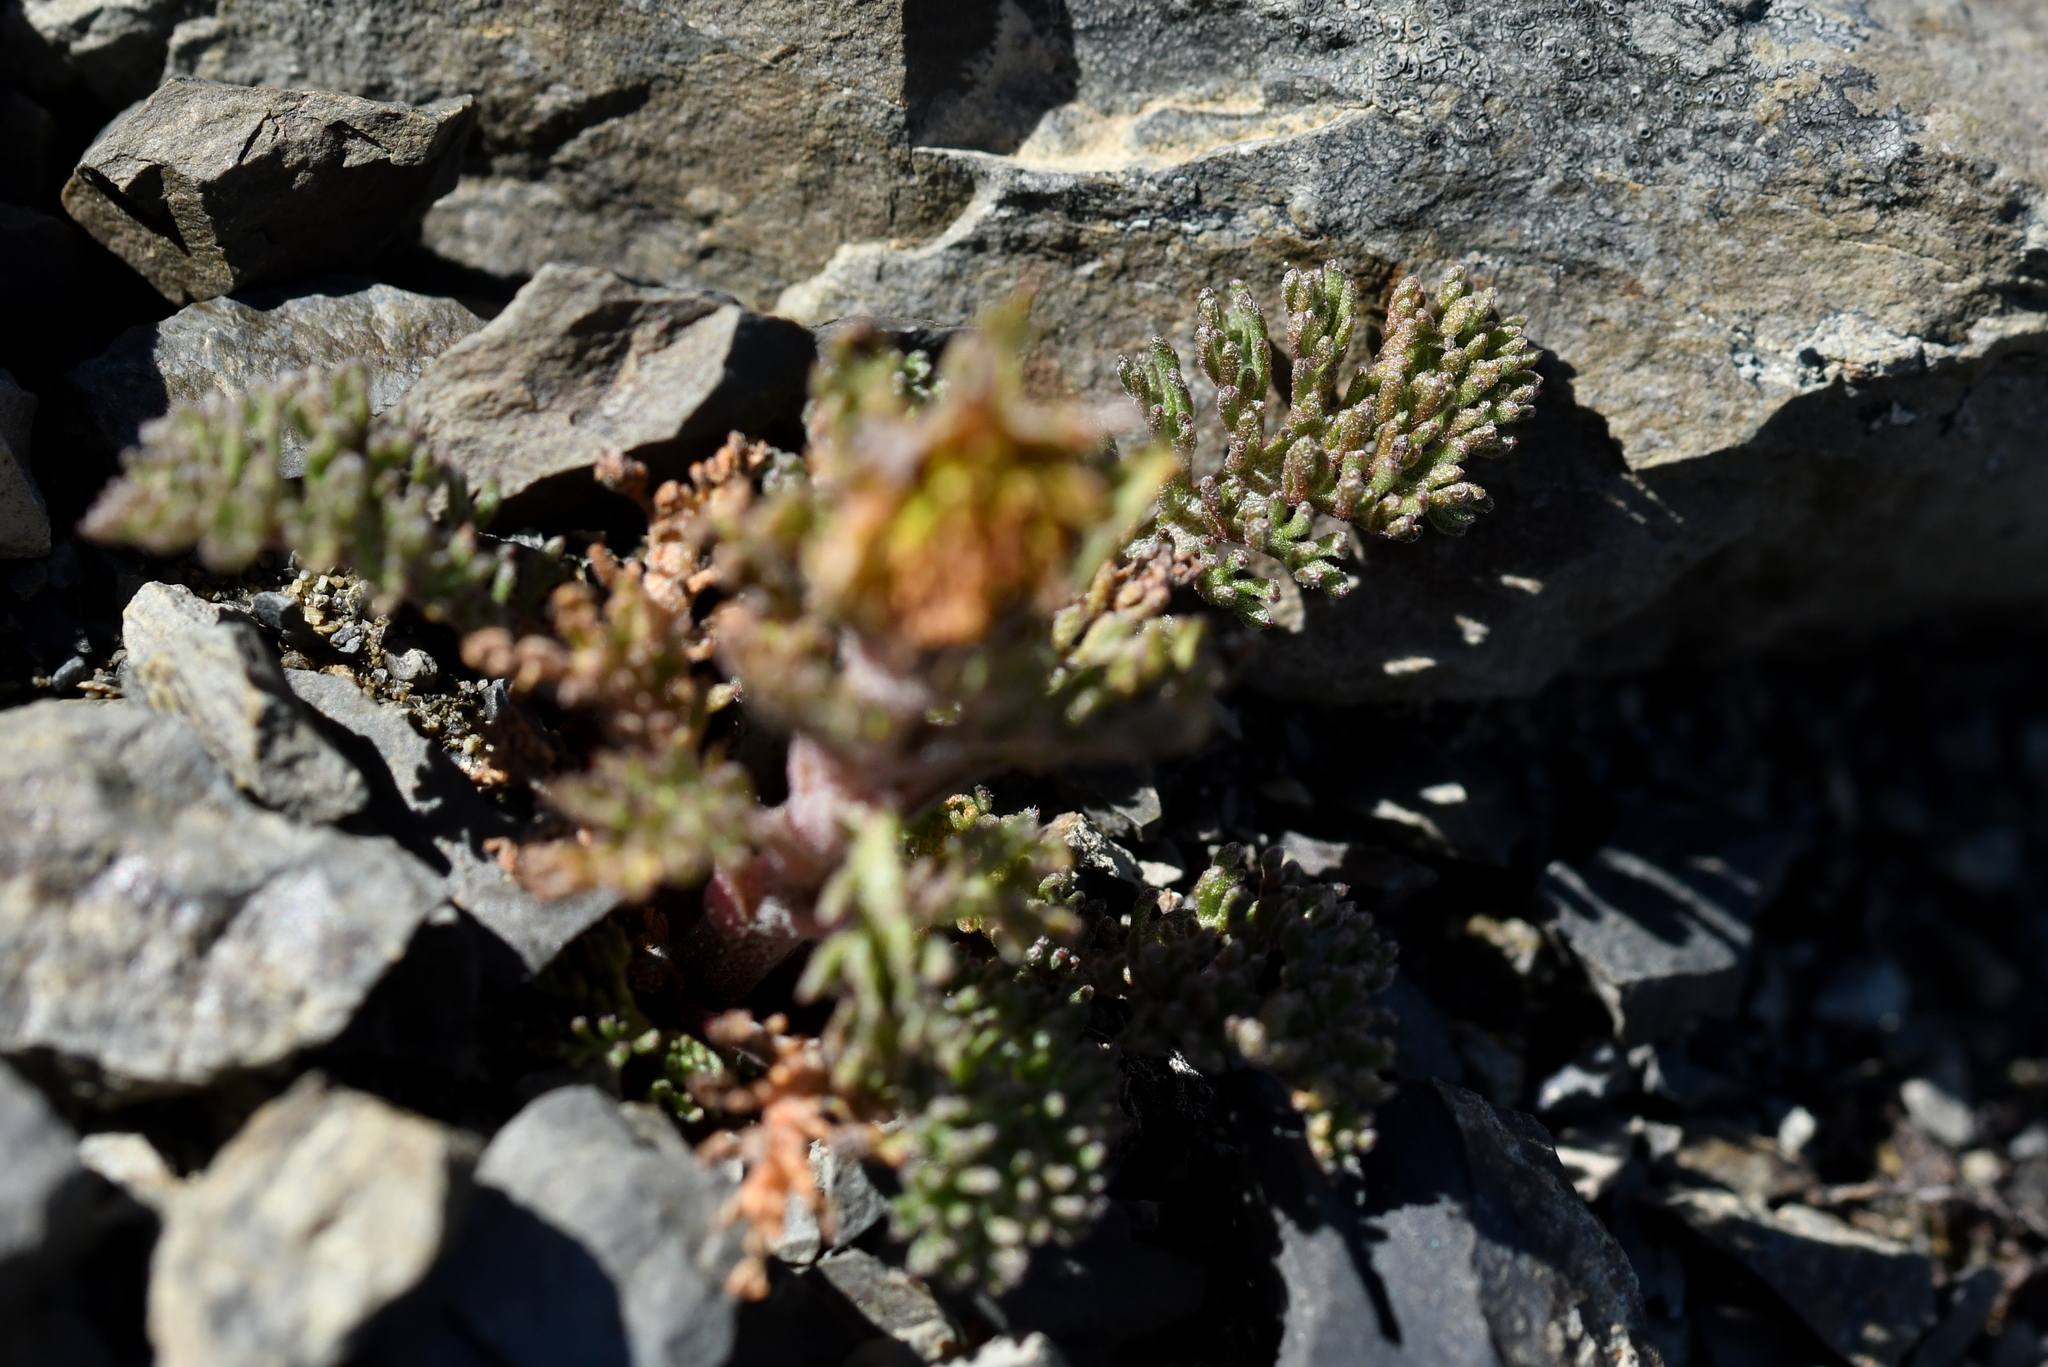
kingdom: Plantae
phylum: Tracheophyta
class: Magnoliopsida
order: Asterales
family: Asteraceae
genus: Leptinella
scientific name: Leptinella dendyi
